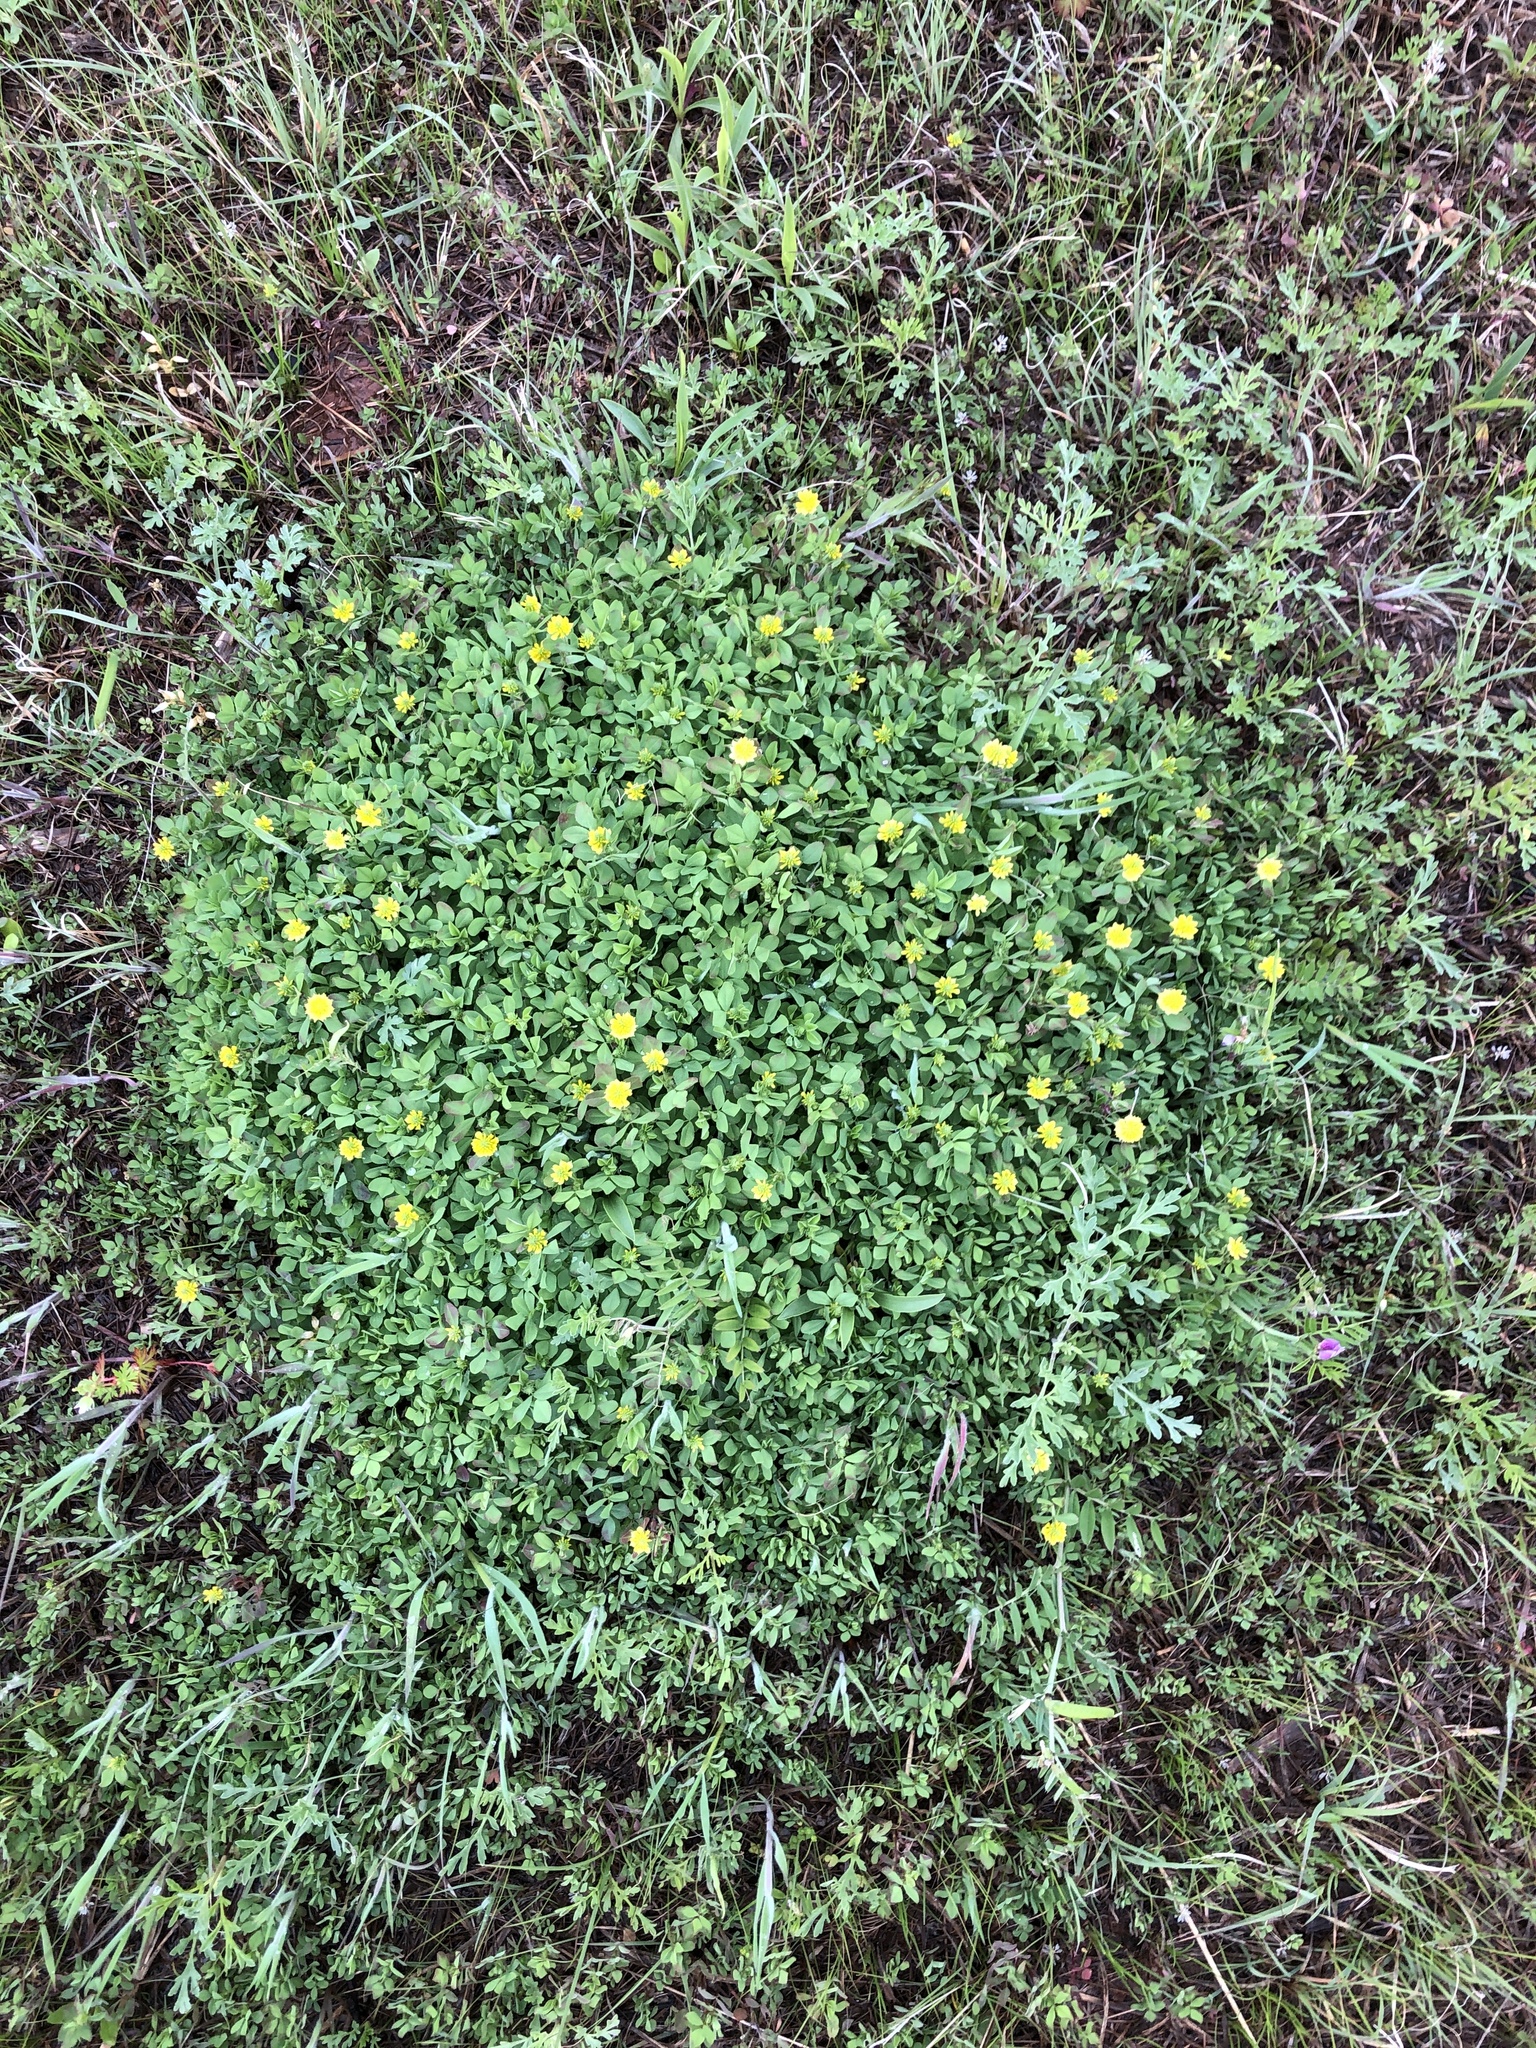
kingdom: Plantae
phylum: Tracheophyta
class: Magnoliopsida
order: Fabales
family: Fabaceae
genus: Trifolium
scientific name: Trifolium campestre
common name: Field clover
